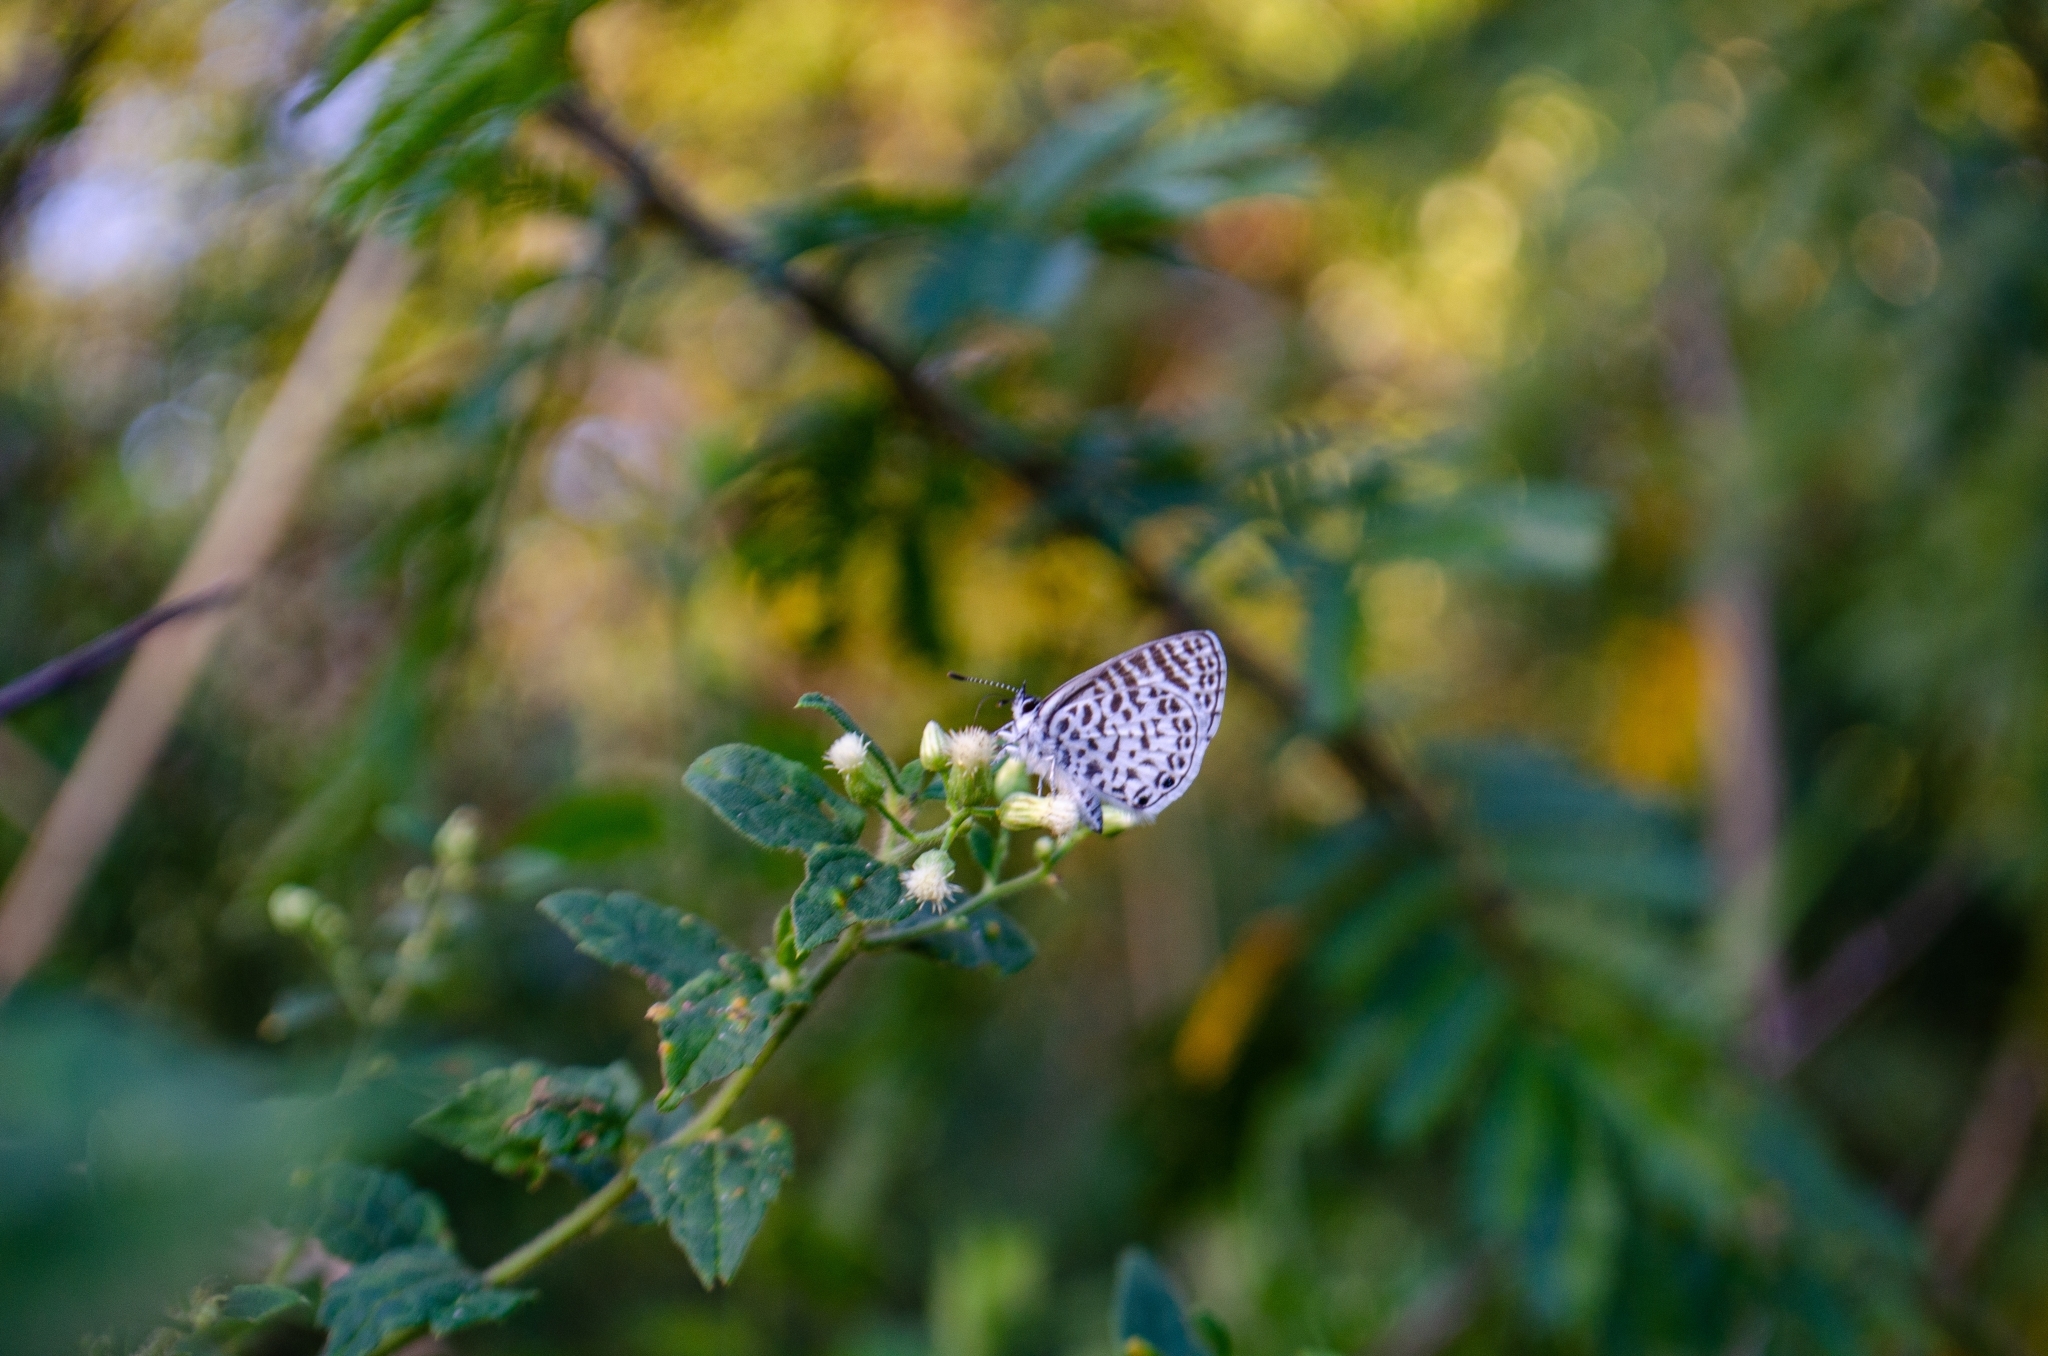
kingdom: Animalia
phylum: Arthropoda
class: Insecta
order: Lepidoptera
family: Lycaenidae
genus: Leptotes
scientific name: Leptotes cassius
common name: Cassius blue
